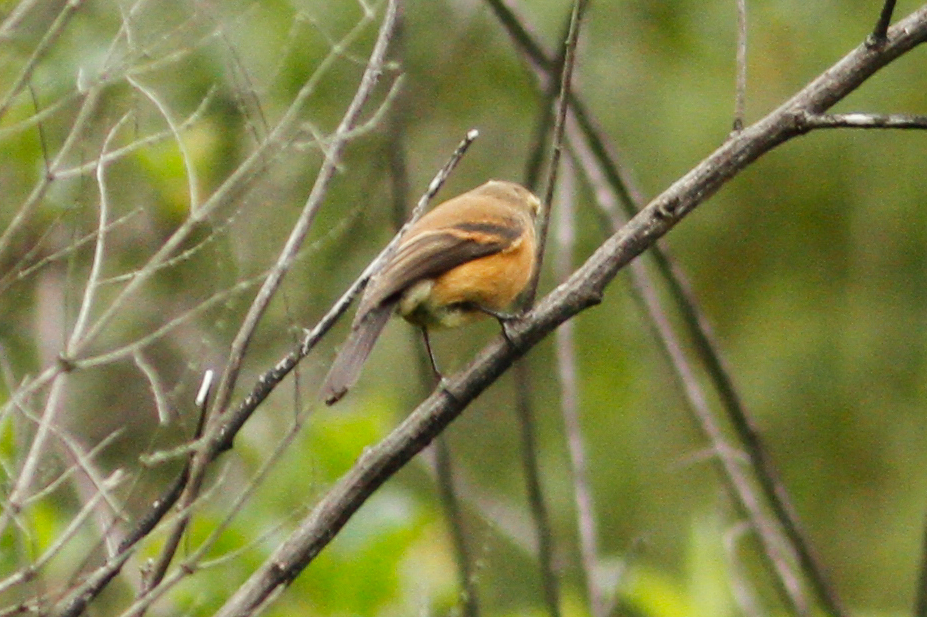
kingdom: Animalia
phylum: Chordata
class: Aves
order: Passeriformes
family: Tyrannidae
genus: Ochthoeca
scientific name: Ochthoeca fumicolor
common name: Brown-backed chat-tyrant
